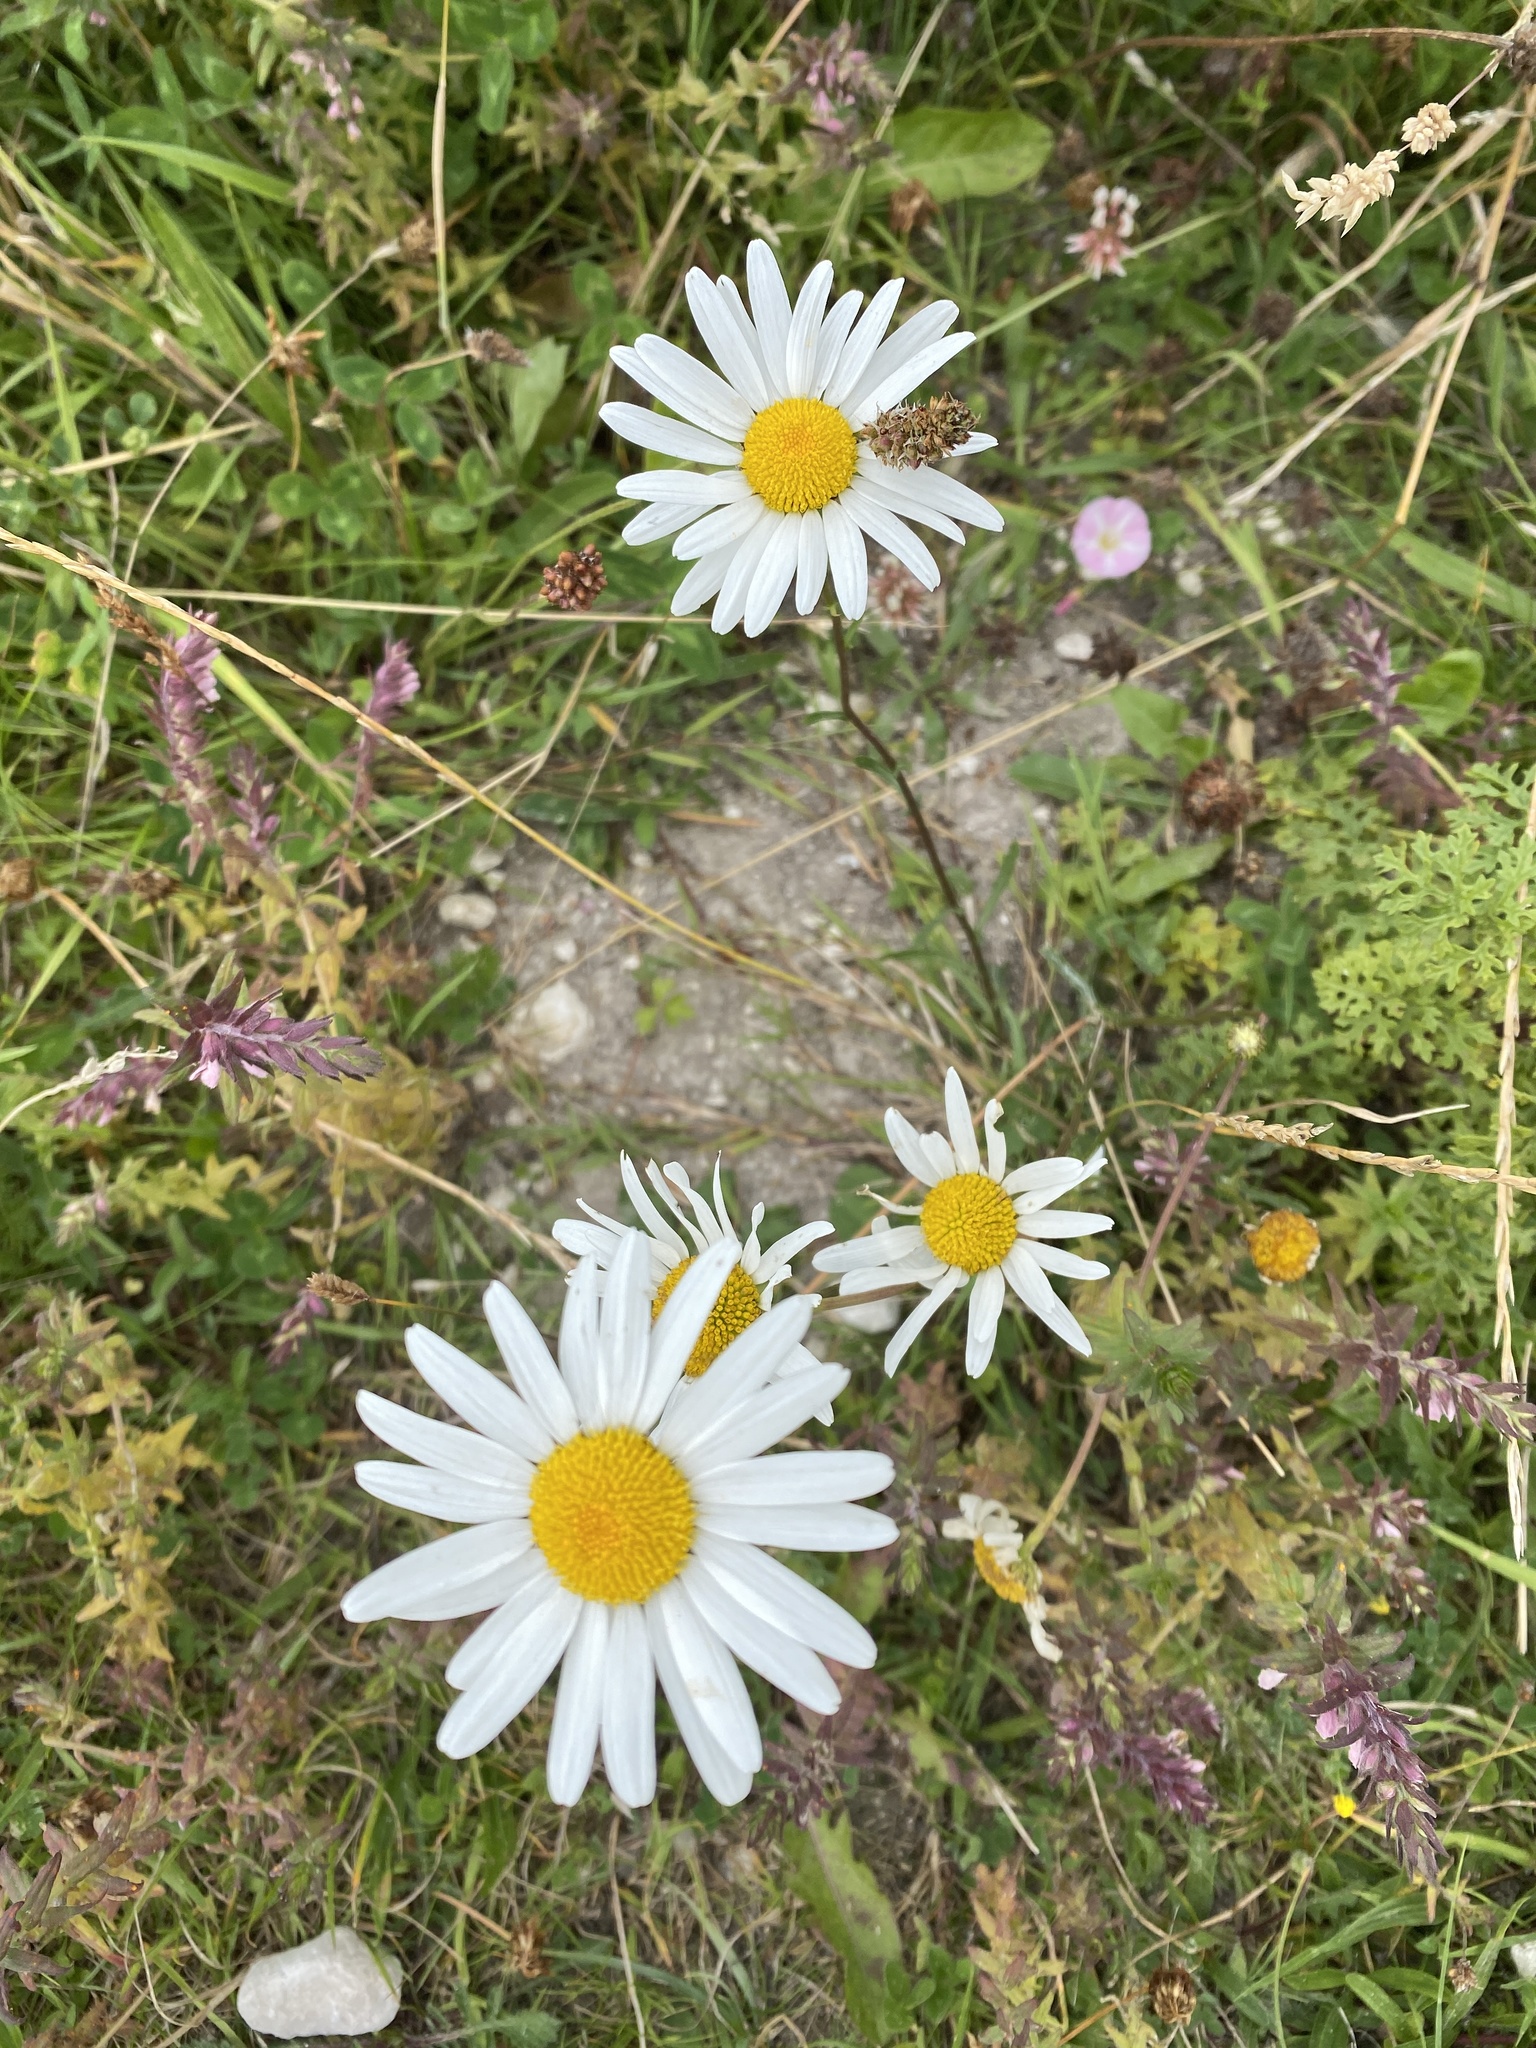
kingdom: Plantae
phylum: Tracheophyta
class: Magnoliopsida
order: Asterales
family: Asteraceae
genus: Leucanthemum
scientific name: Leucanthemum vulgare
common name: Oxeye daisy
